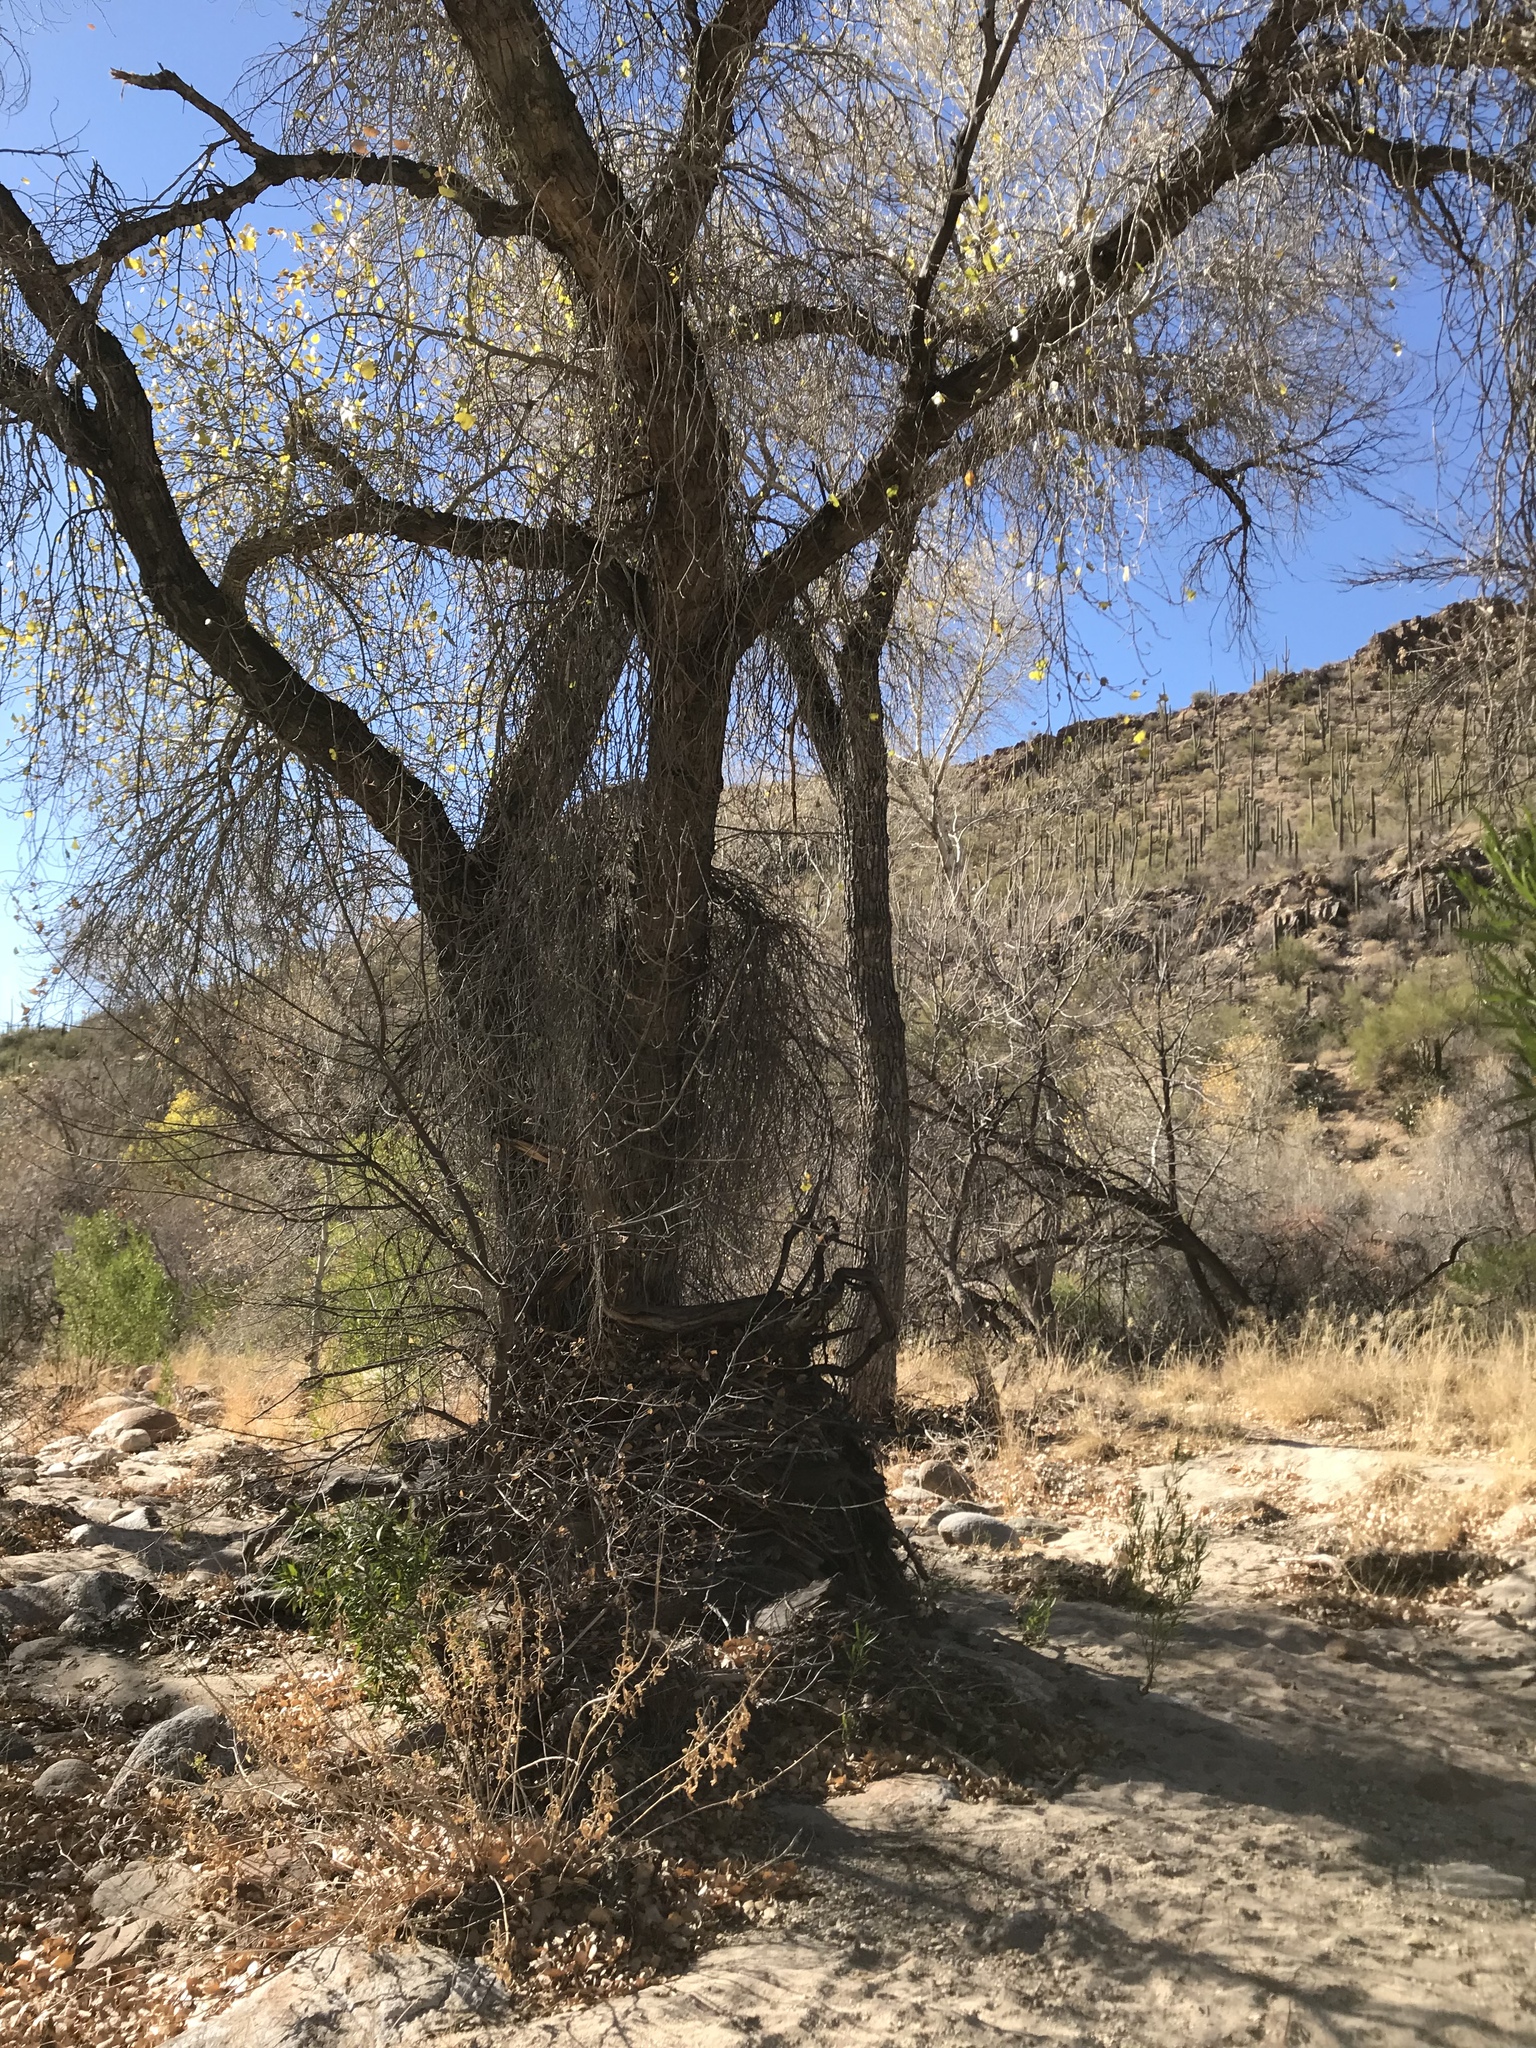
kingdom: Plantae
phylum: Tracheophyta
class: Magnoliopsida
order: Malpighiales
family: Salicaceae
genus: Populus
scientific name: Populus fremontii
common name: Fremont's cottonwood
